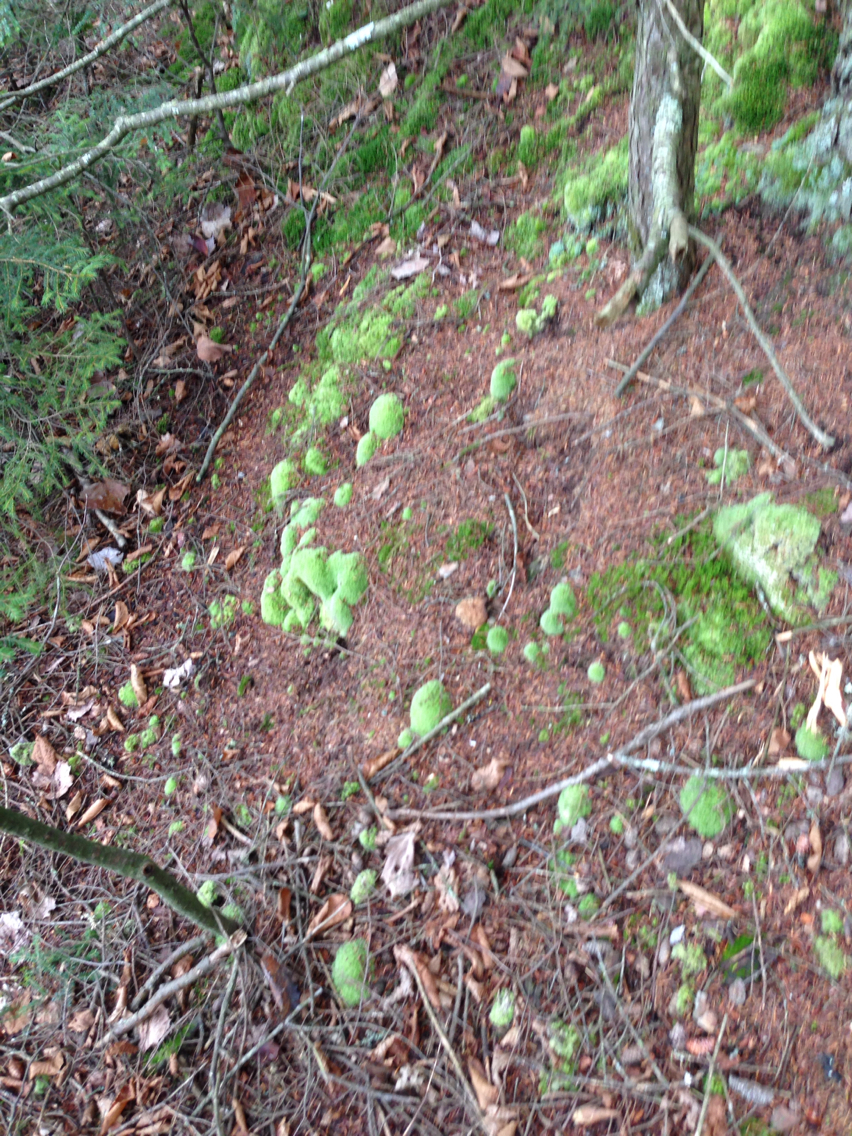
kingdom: Plantae
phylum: Bryophyta
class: Bryopsida
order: Dicranales
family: Leucobryaceae
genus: Leucobryum
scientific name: Leucobryum glaucum
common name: Large white-moss
